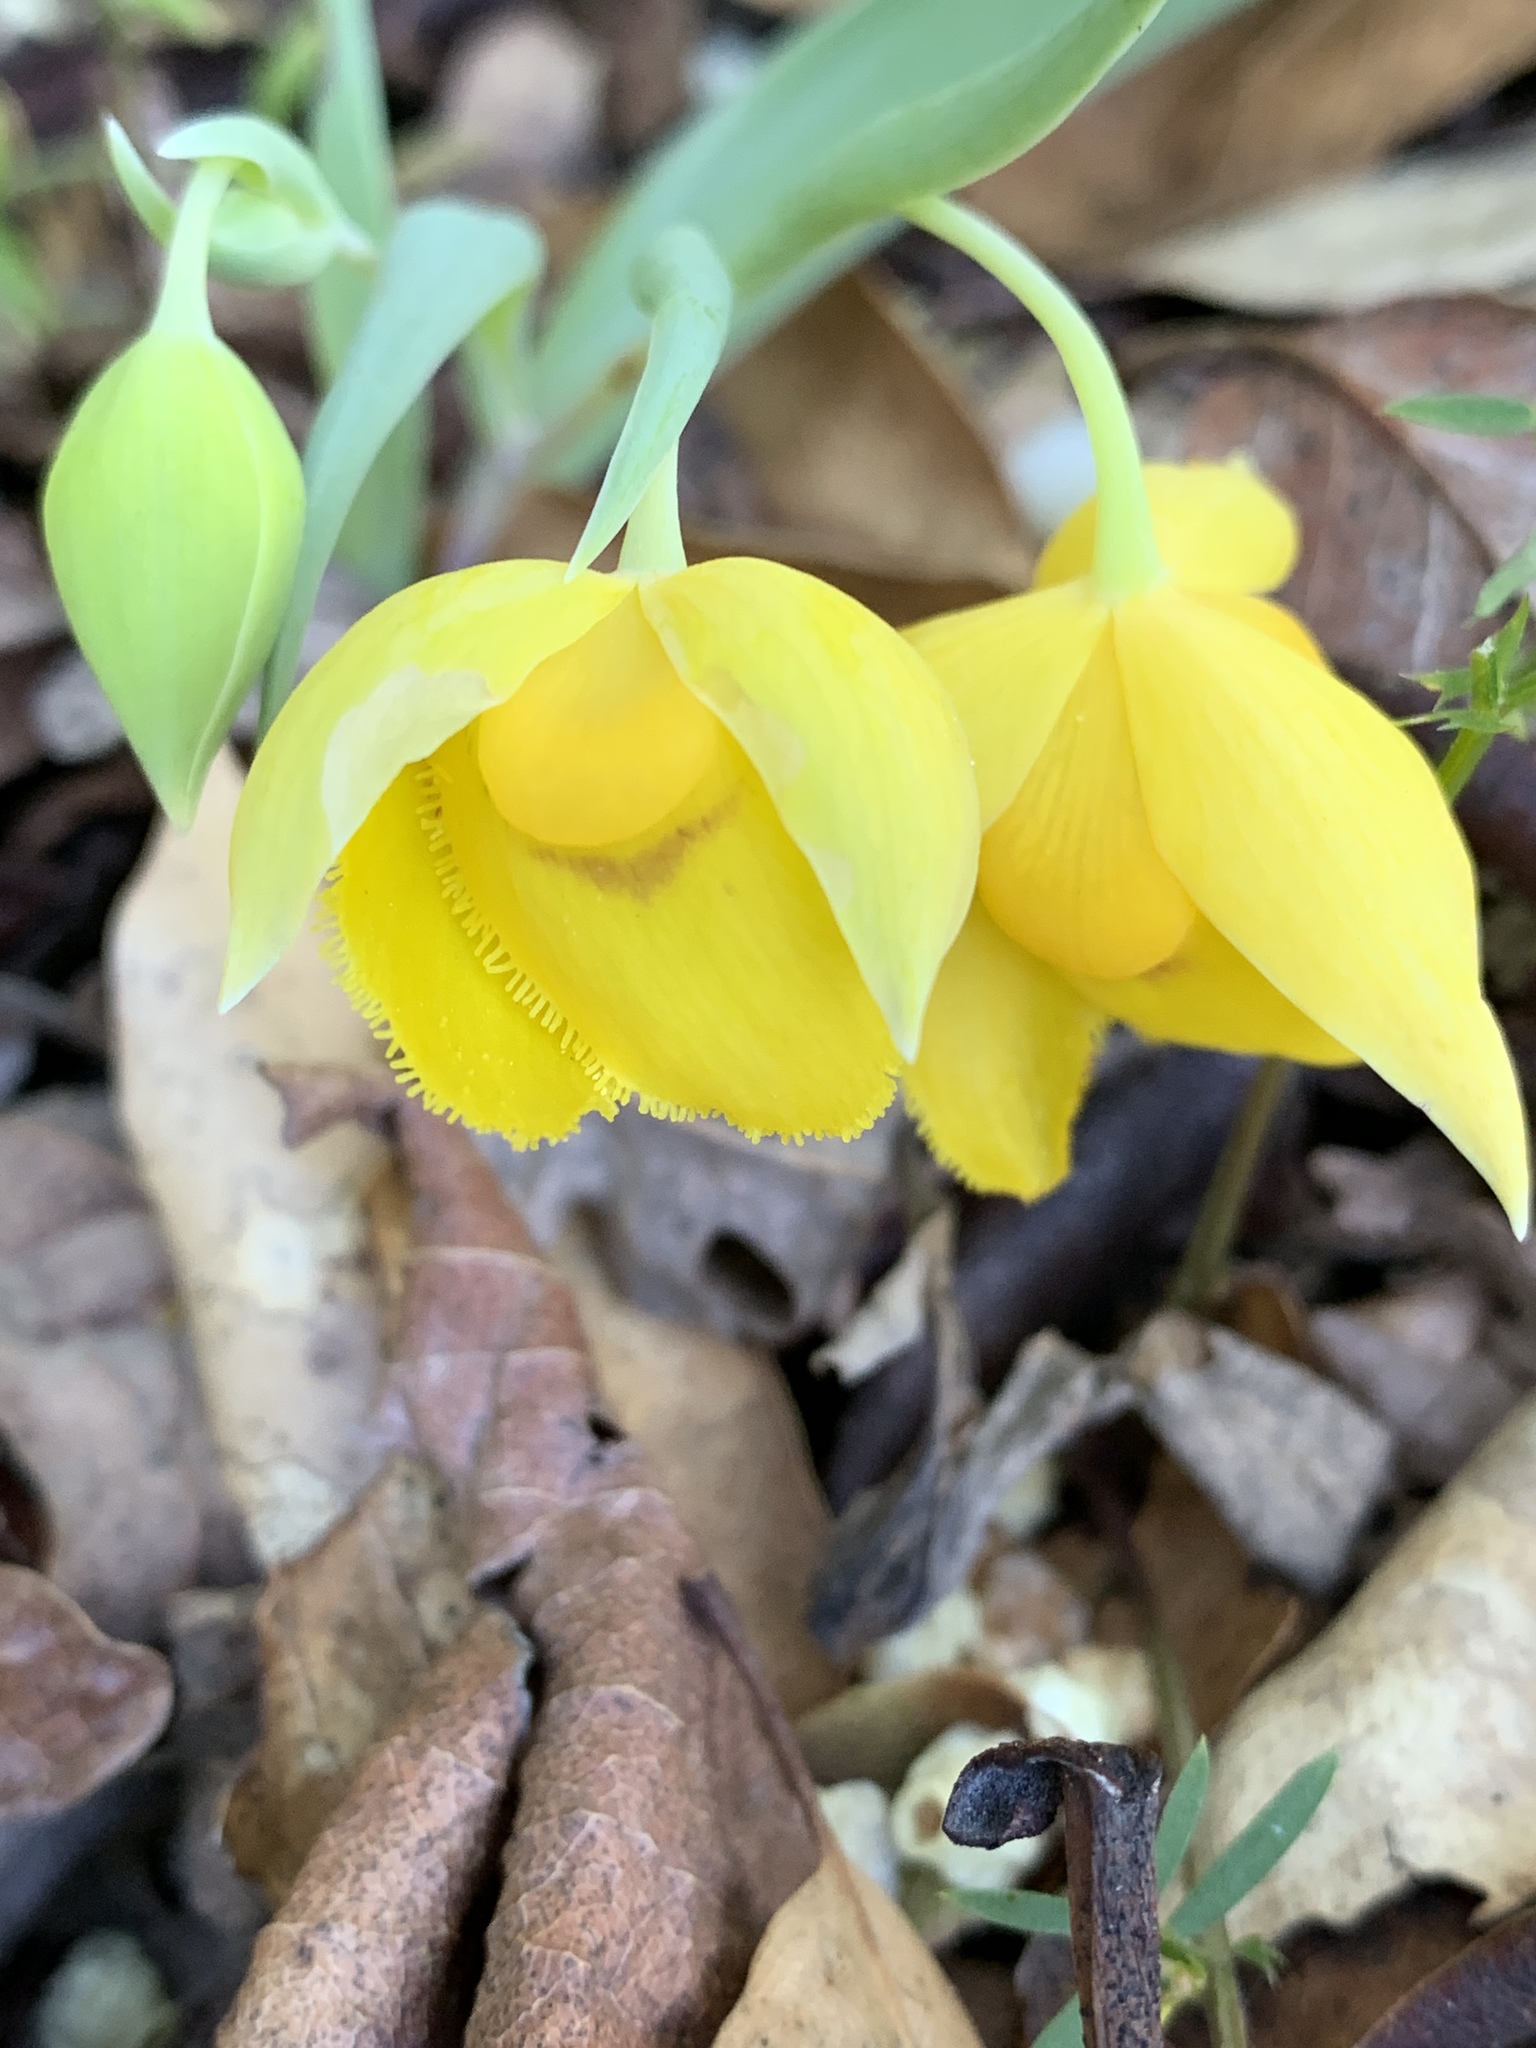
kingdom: Plantae
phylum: Tracheophyta
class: Liliopsida
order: Liliales
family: Liliaceae
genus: Calochortus
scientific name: Calochortus amabilis
